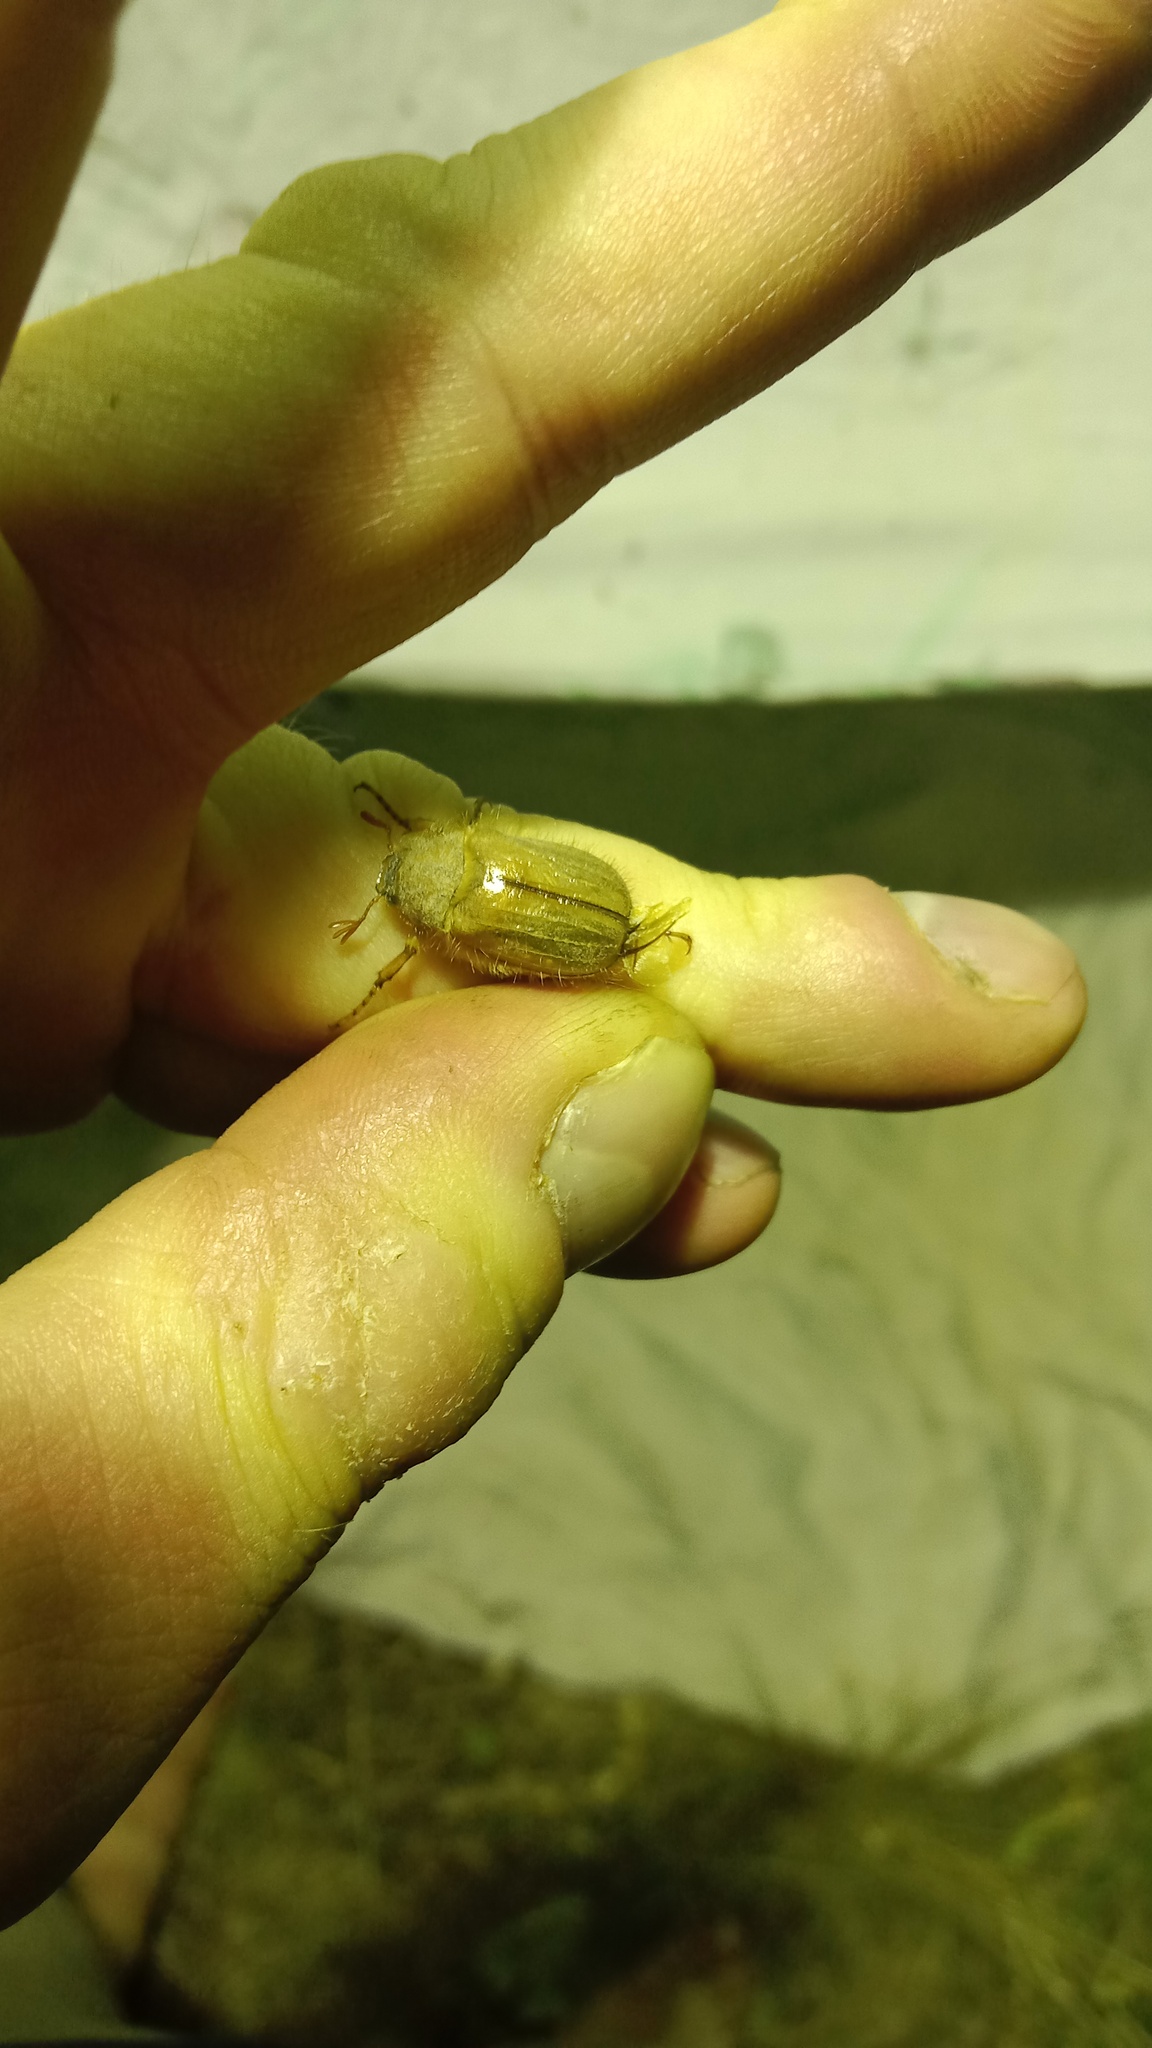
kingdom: Animalia
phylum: Arthropoda
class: Insecta
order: Coleoptera
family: Scarabaeidae
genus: Amphimallon
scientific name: Amphimallon assimile
